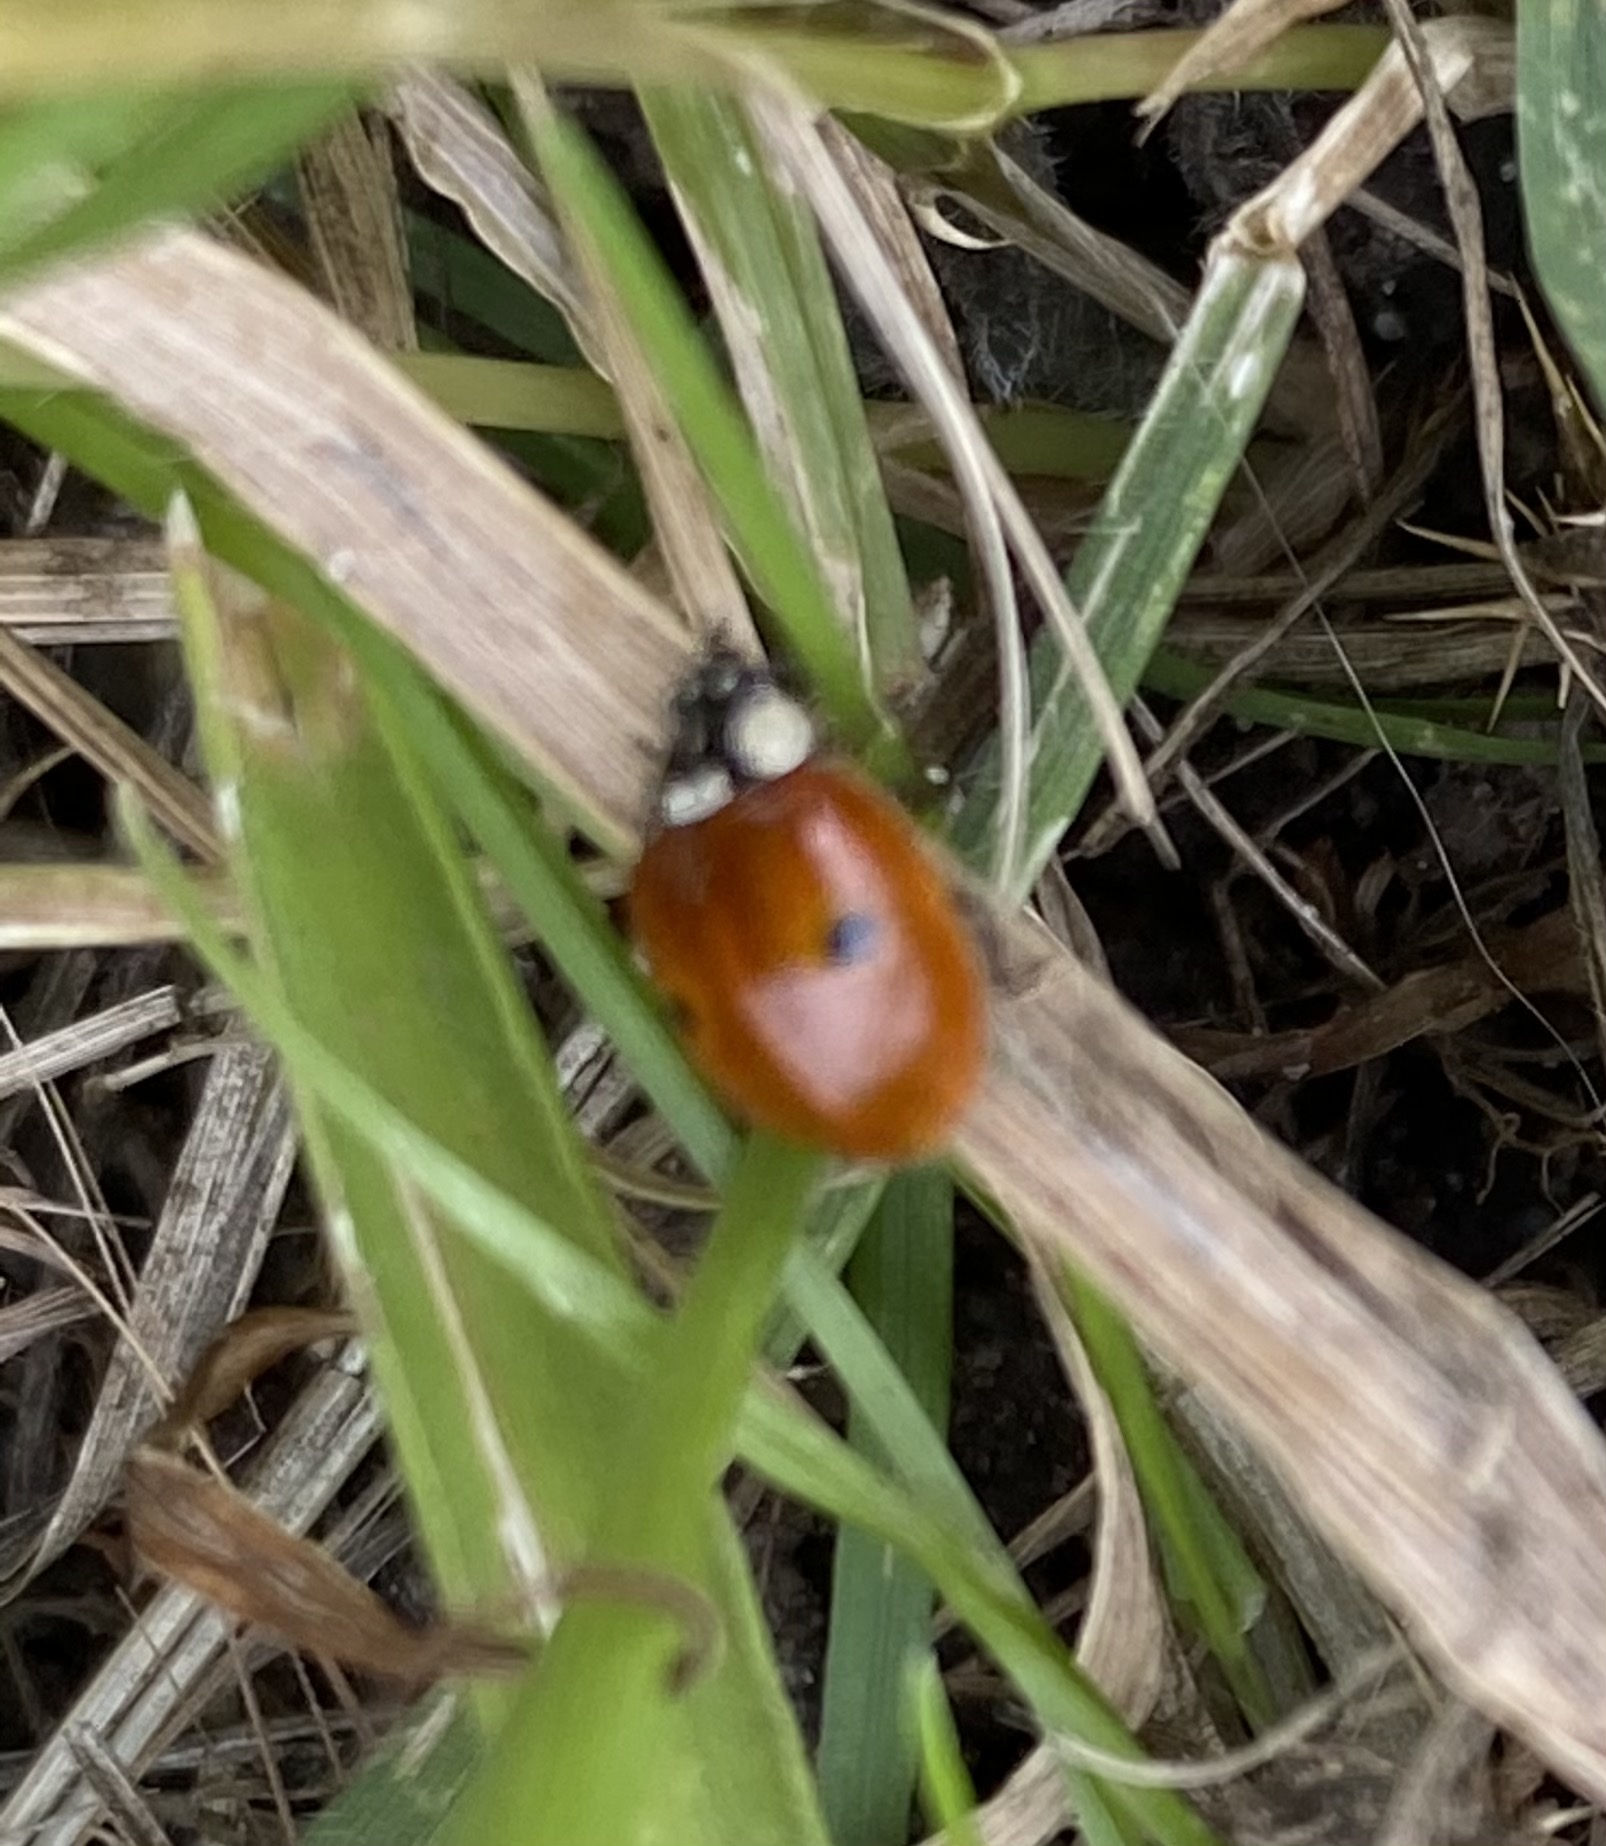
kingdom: Animalia
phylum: Arthropoda
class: Insecta
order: Coleoptera
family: Coccinellidae
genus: Adalia
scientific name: Adalia bipunctata
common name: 2-spot ladybird
